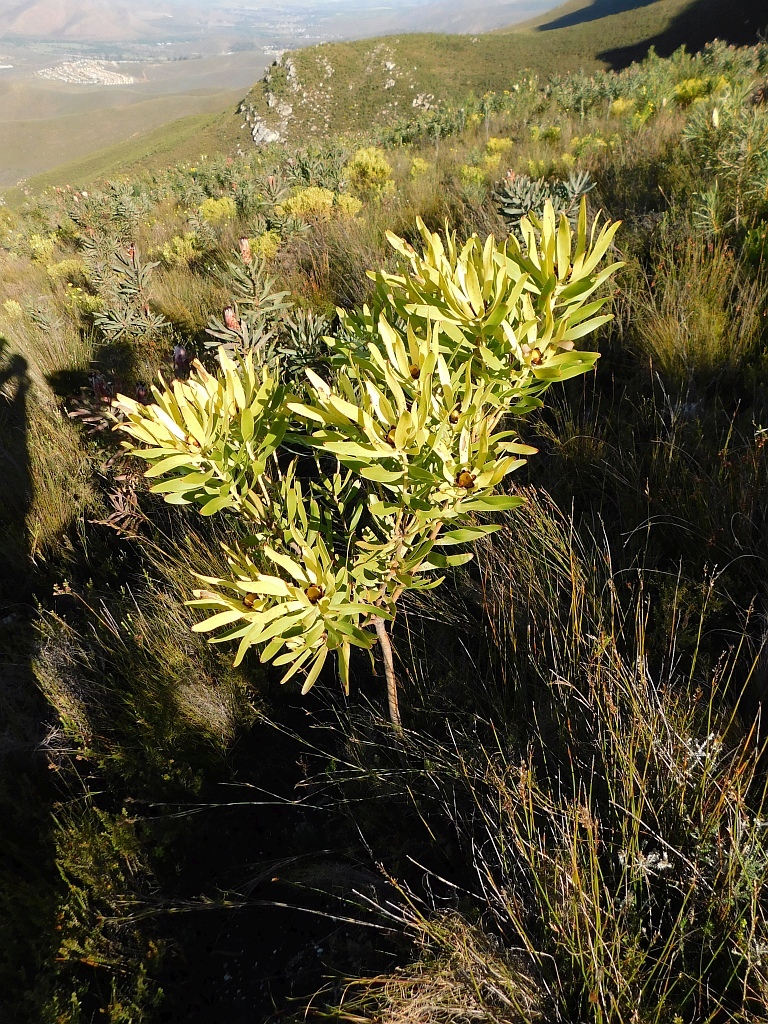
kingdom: Plantae
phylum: Tracheophyta
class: Magnoliopsida
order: Proteales
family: Proteaceae
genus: Leucadendron
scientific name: Leucadendron microcephalum
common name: Oilbract conebush
